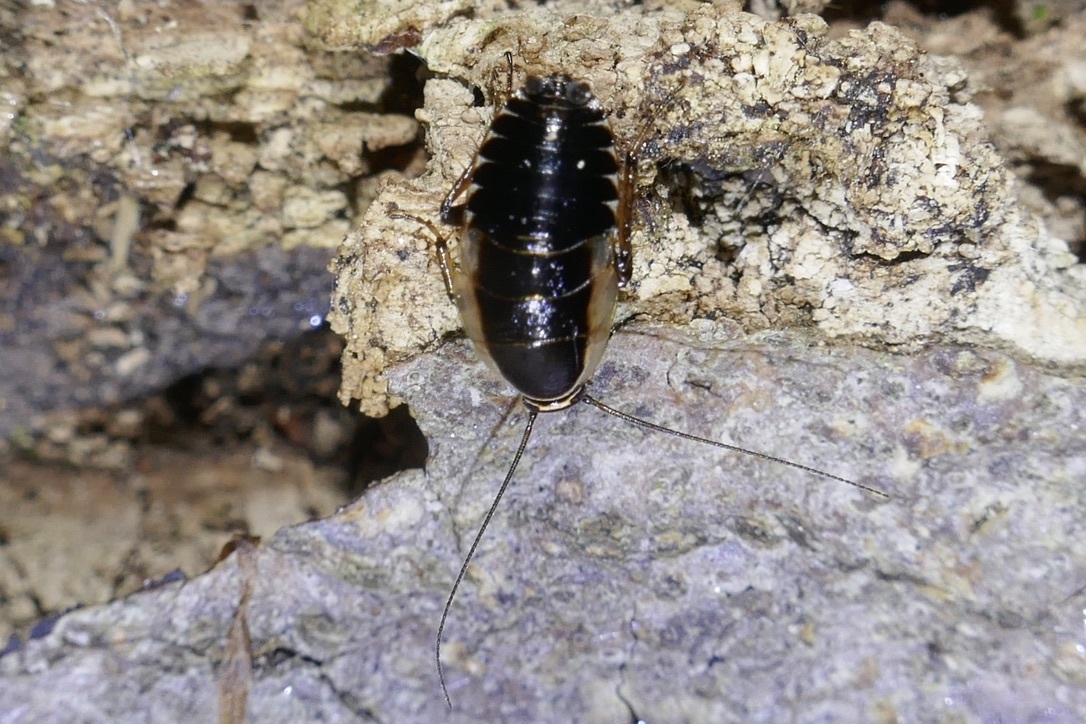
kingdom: Animalia
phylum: Arthropoda
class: Insecta
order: Blattodea
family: Ectobiidae
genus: Ectobius
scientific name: Ectobius sylvestris
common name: Forest cockroach
